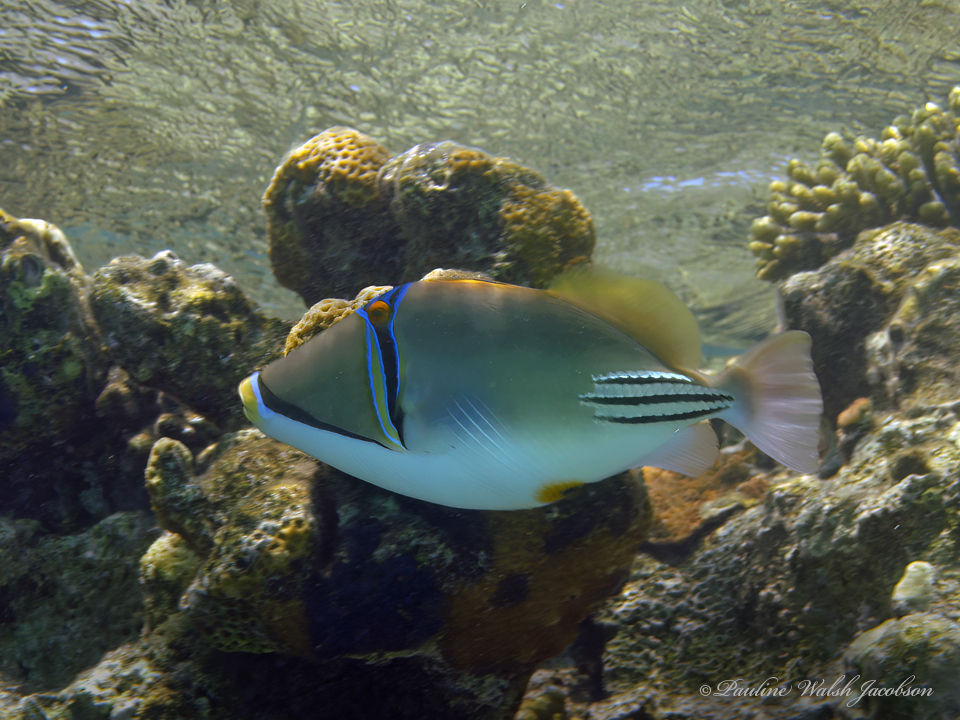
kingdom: Animalia
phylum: Chordata
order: Tetraodontiformes
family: Balistidae
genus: Rhinecanthus
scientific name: Rhinecanthus assasi
